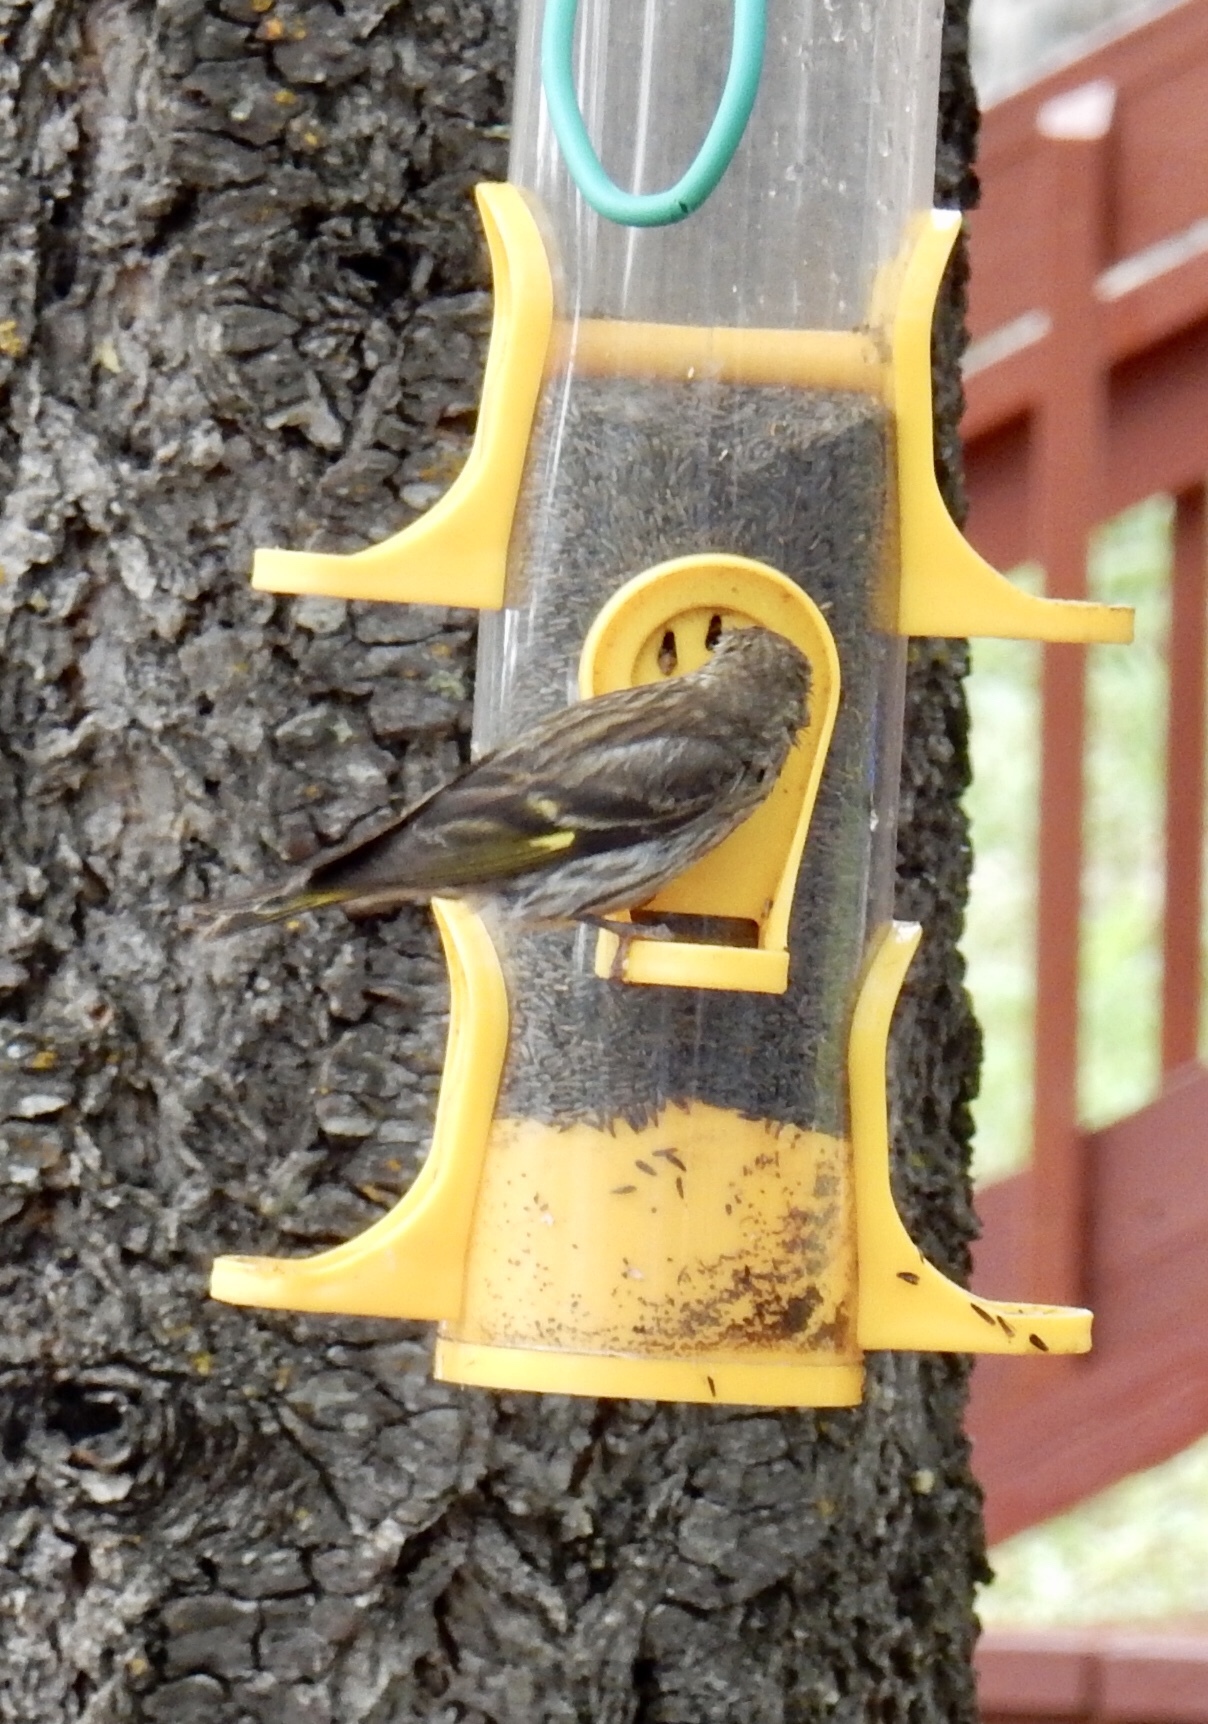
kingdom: Animalia
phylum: Chordata
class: Aves
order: Passeriformes
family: Fringillidae
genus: Spinus
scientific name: Spinus pinus
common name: Pine siskin
